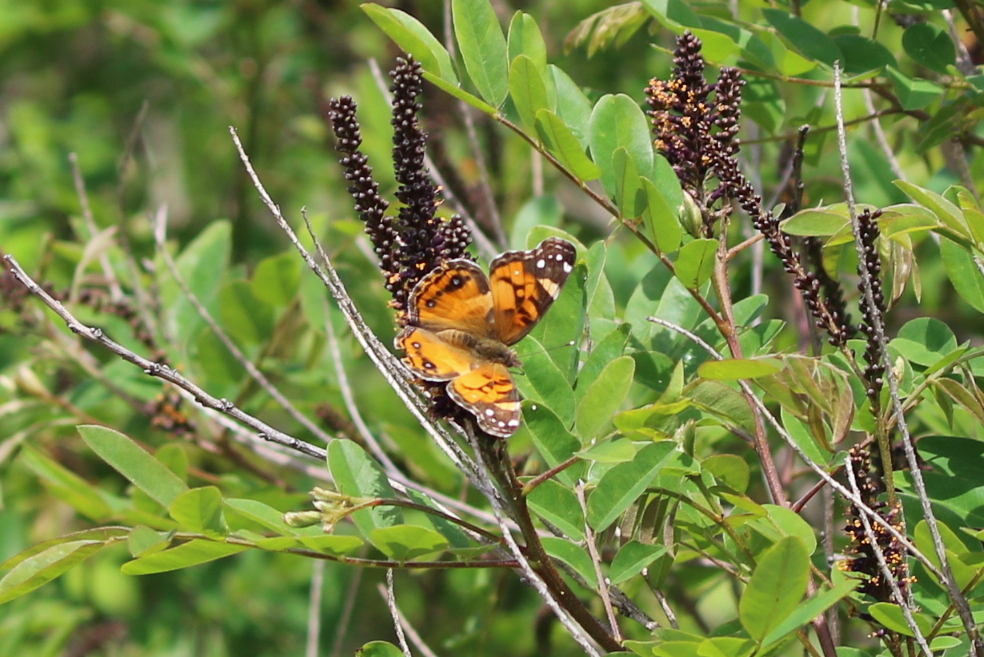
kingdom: Animalia
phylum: Arthropoda
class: Insecta
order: Lepidoptera
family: Nymphalidae
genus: Vanessa
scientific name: Vanessa virginiensis
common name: American lady
